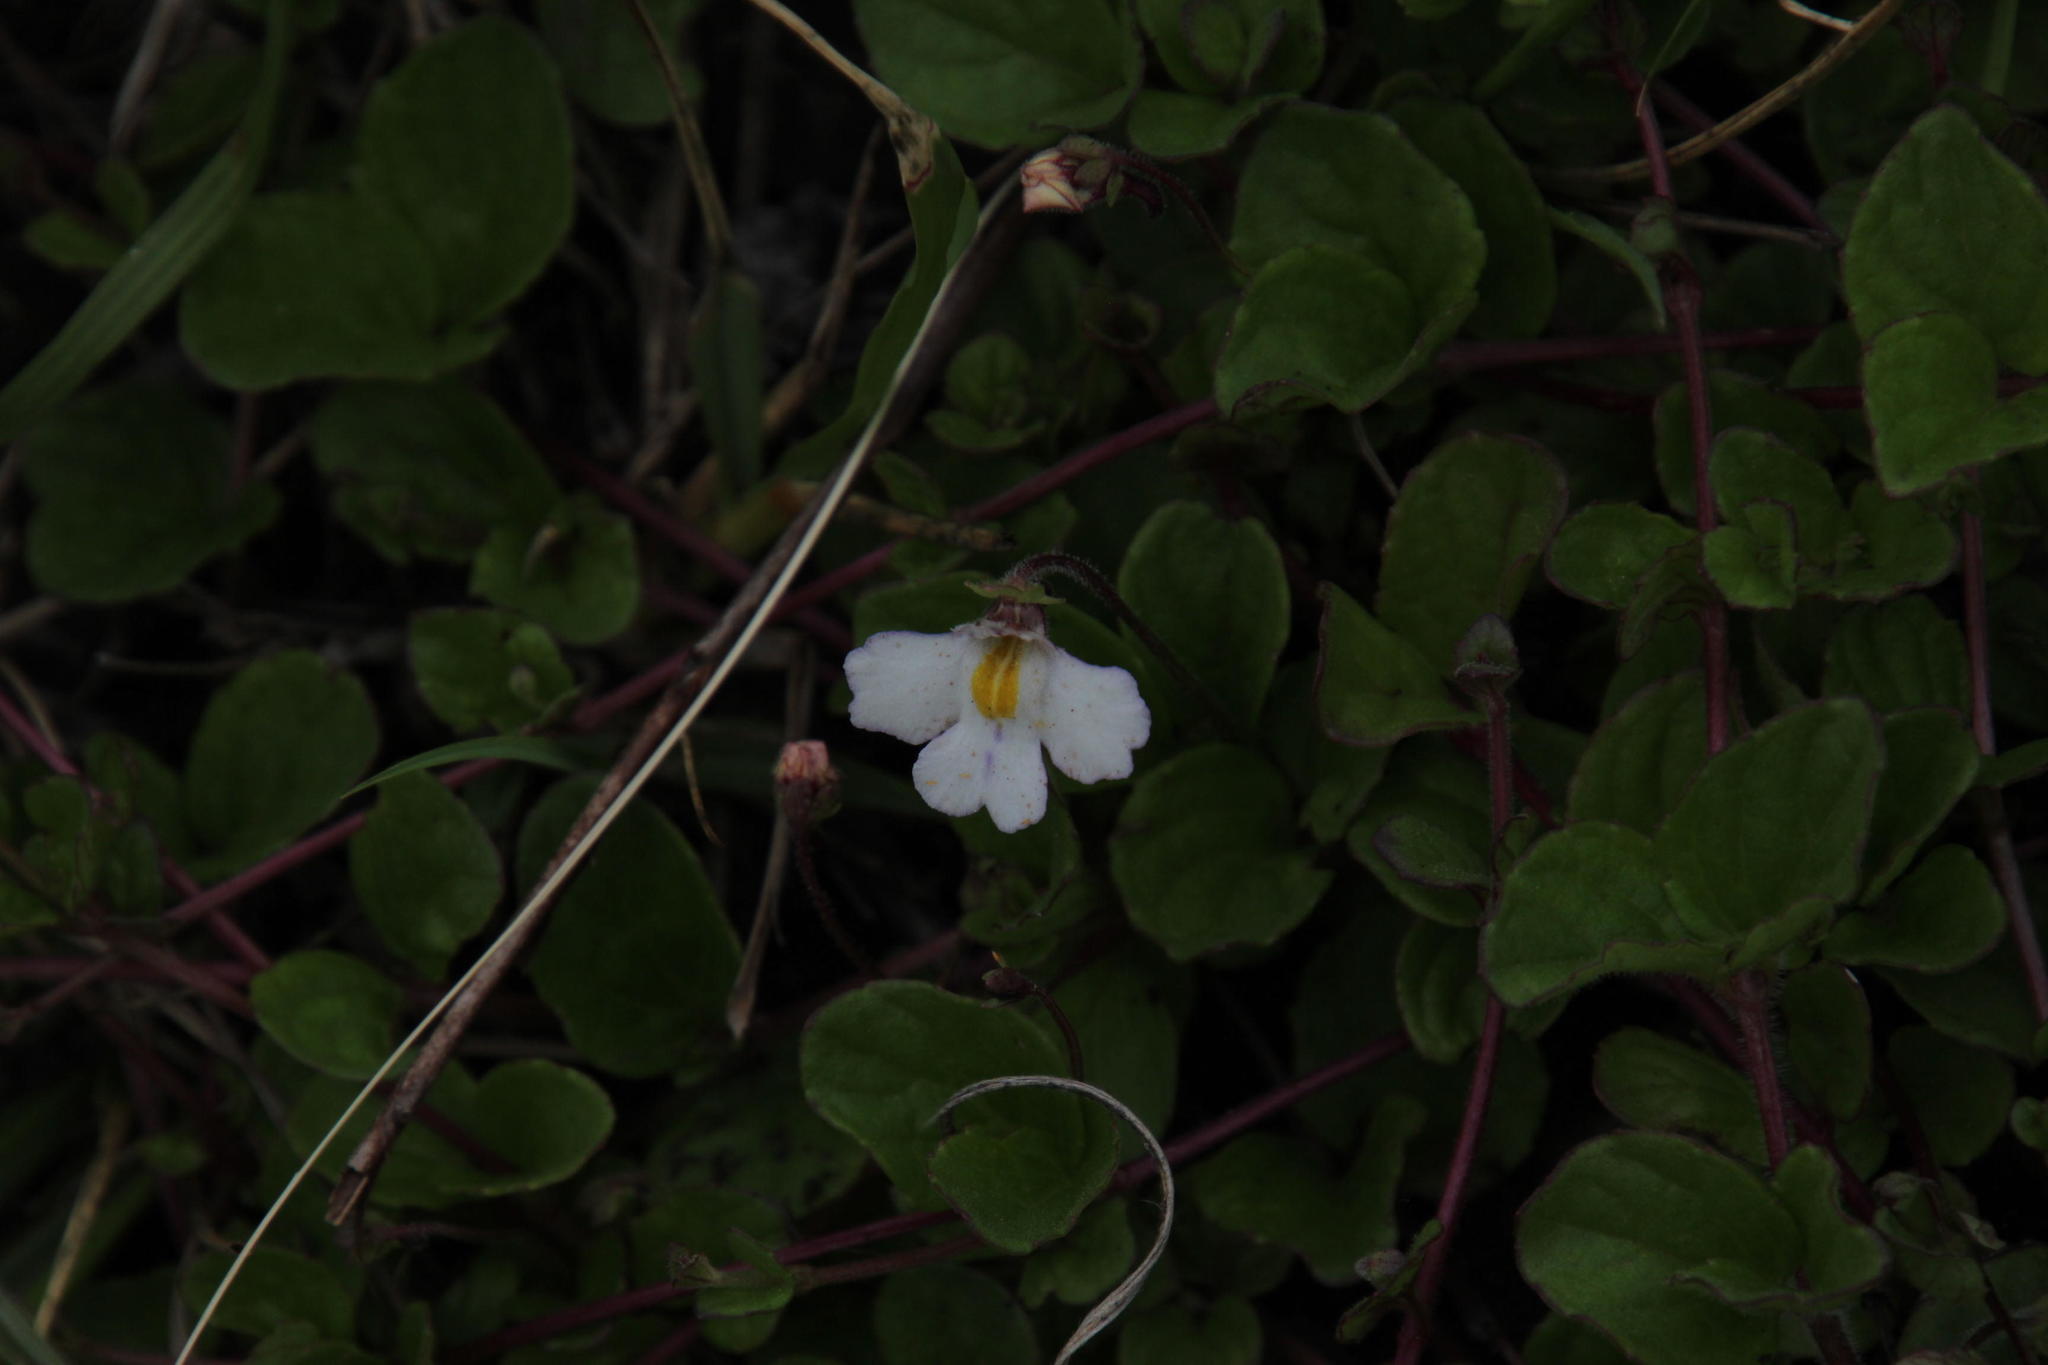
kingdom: Plantae
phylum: Tracheophyta
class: Magnoliopsida
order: Lamiales
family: Scrophulariaceae
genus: Diclis
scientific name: Diclis rotundifolia
